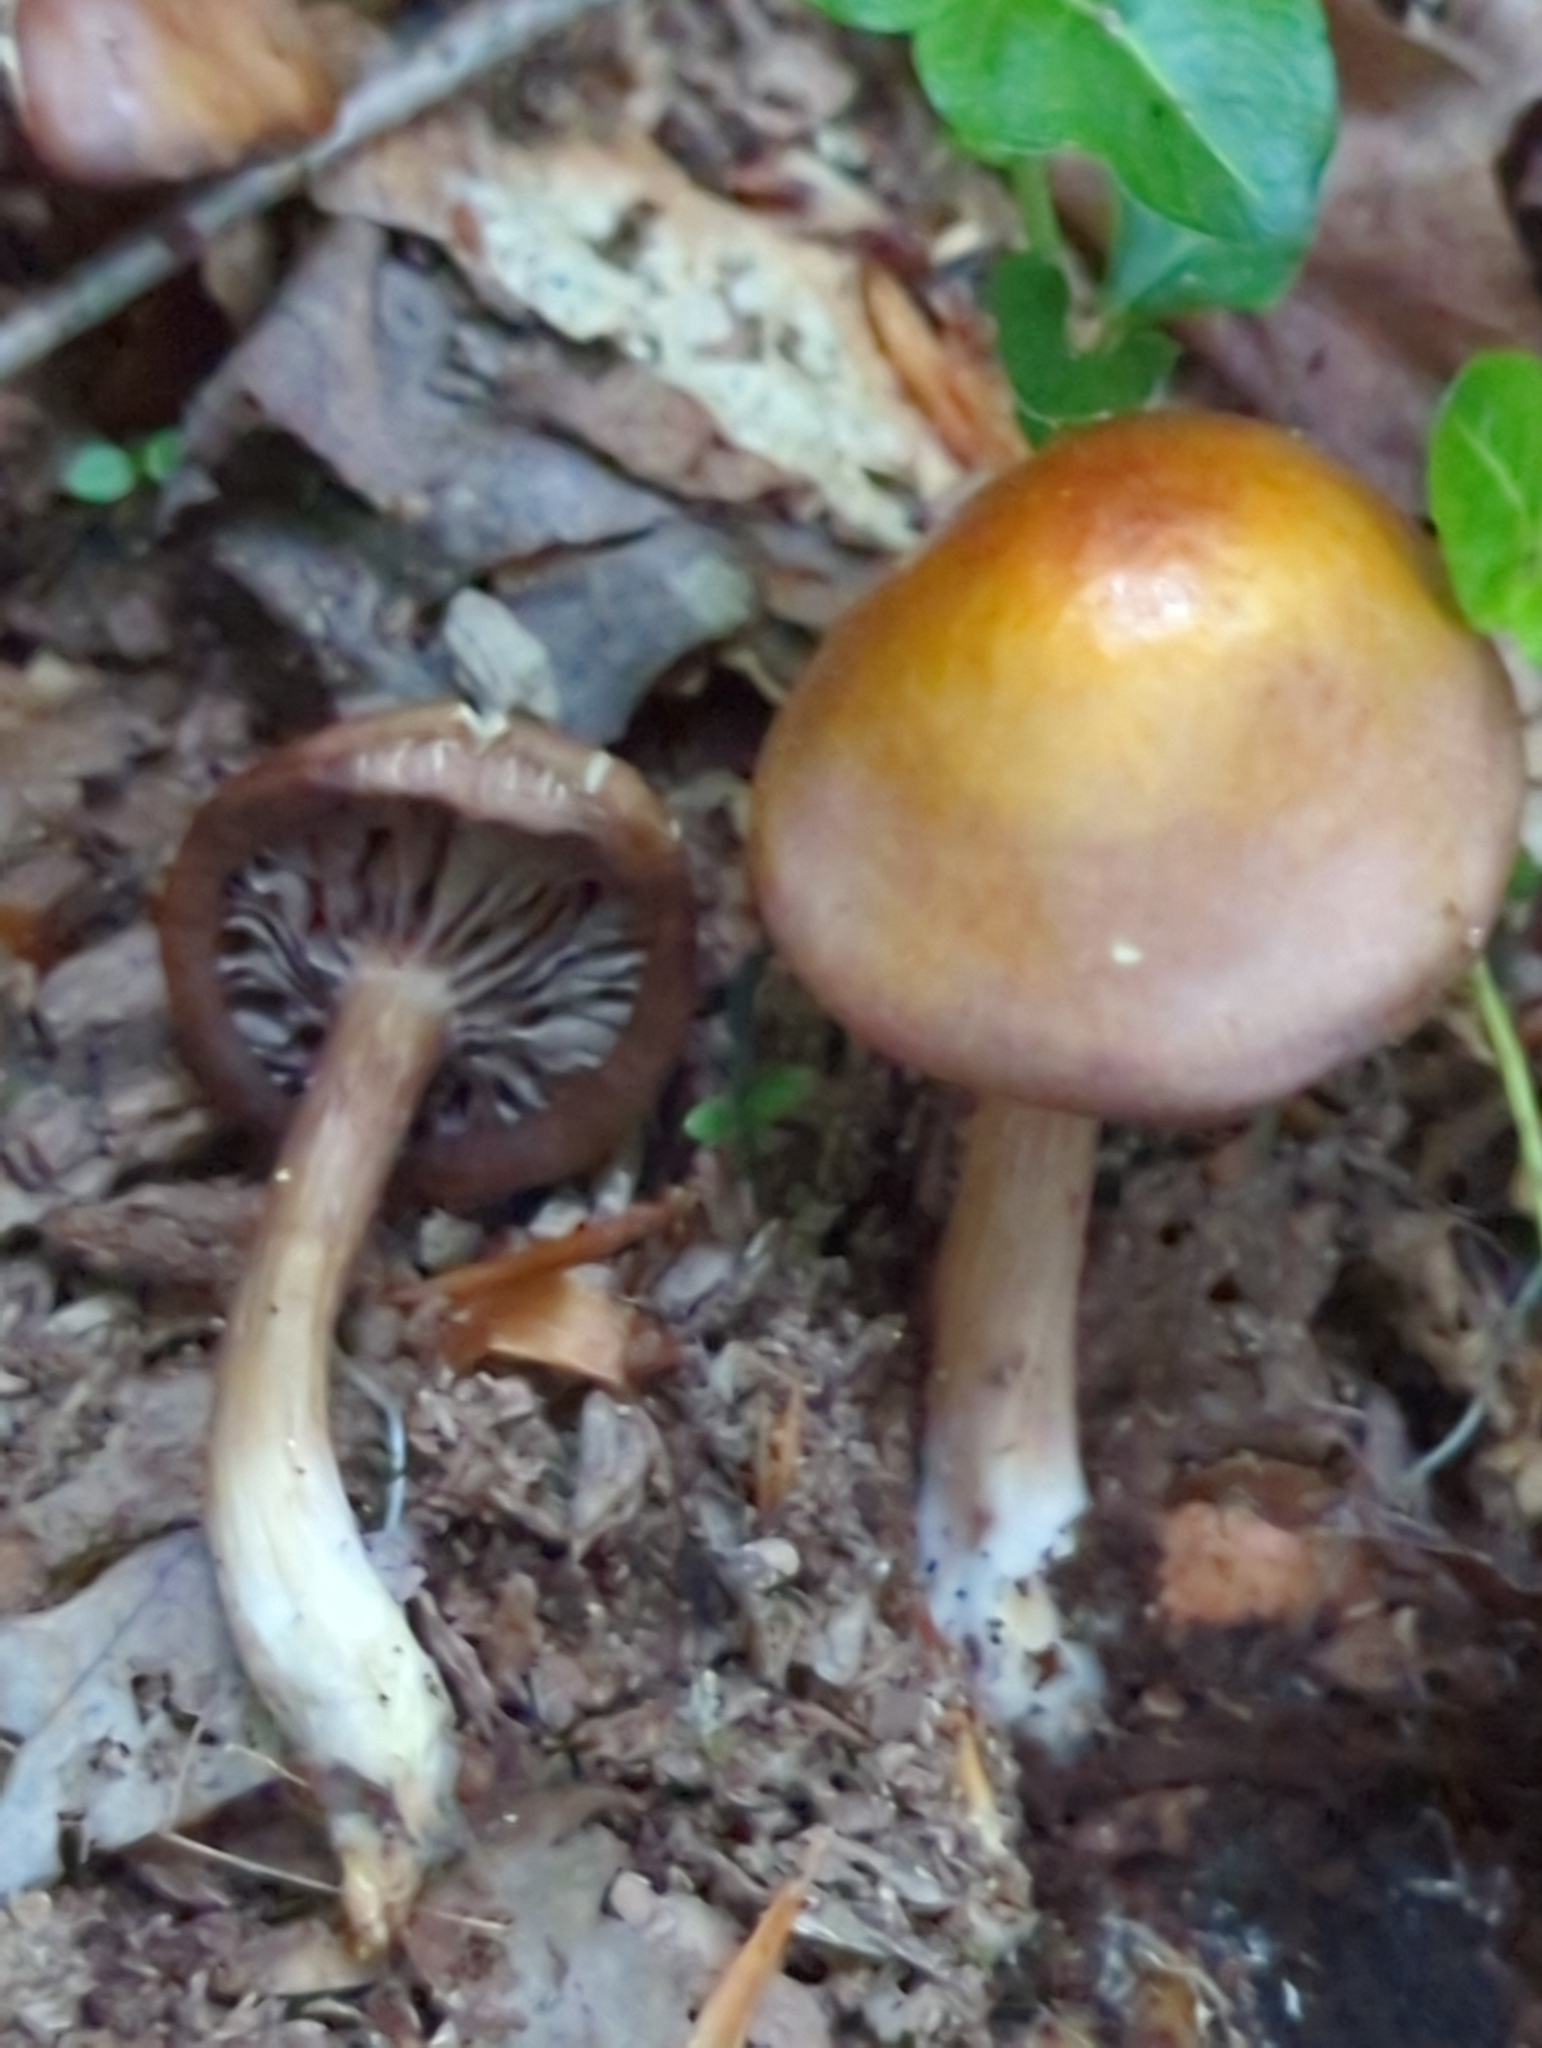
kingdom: Fungi
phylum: Basidiomycota
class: Agaricomycetes
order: Agaricales
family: Mycenaceae
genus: Mycena
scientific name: Mycena denticulata
